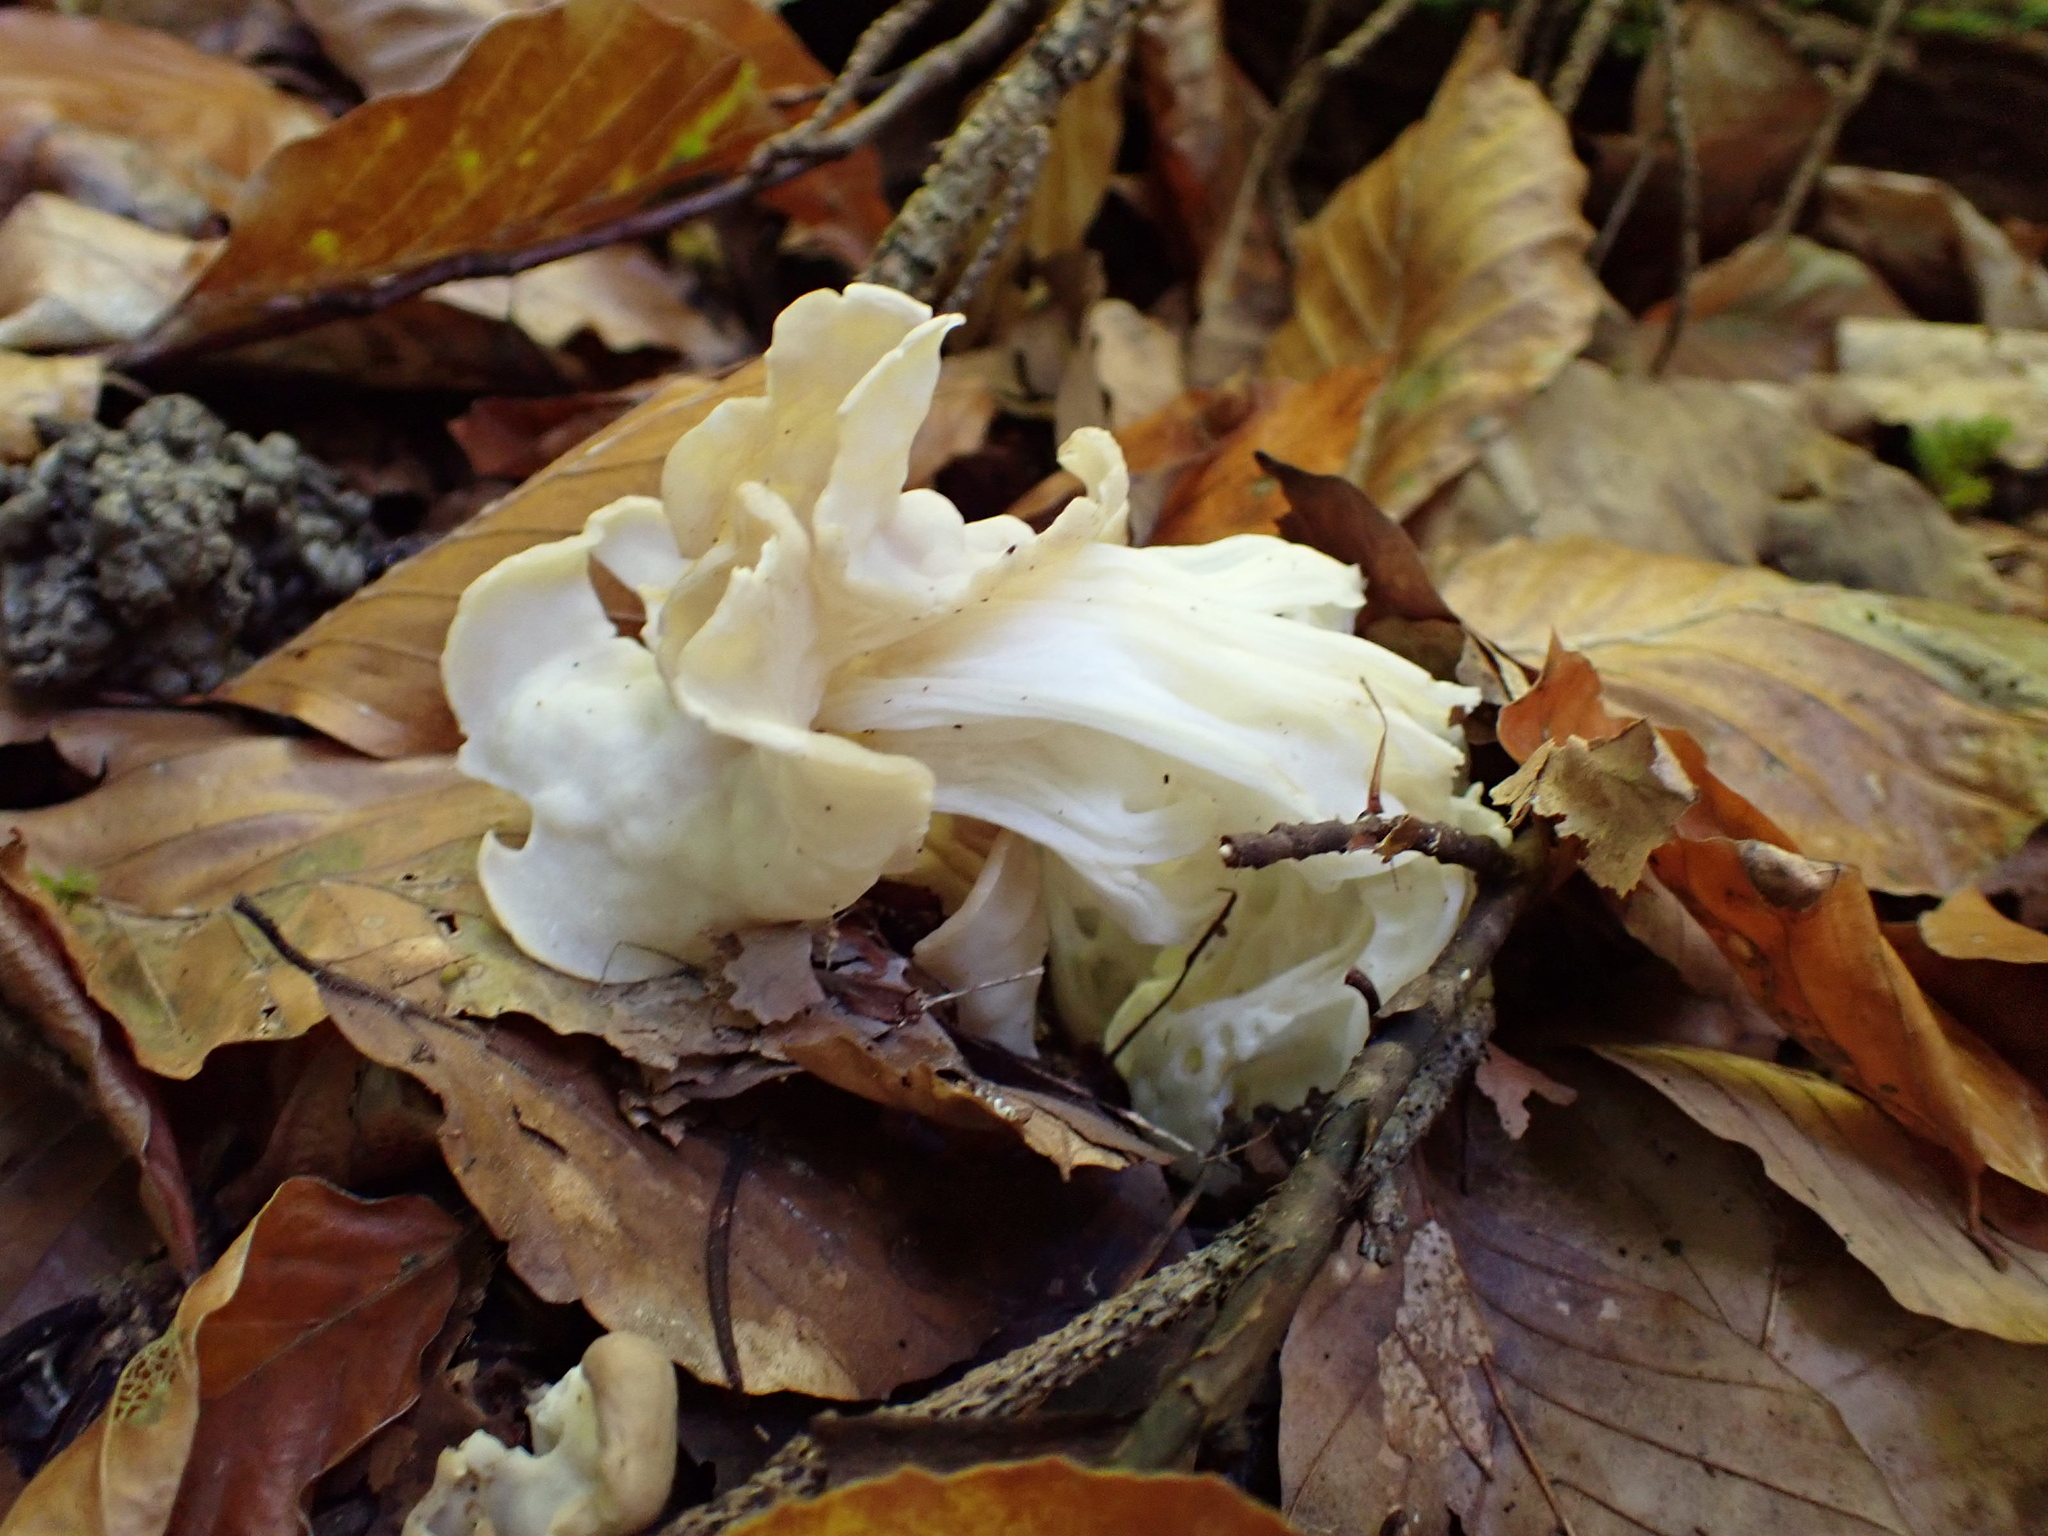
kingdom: Fungi
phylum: Ascomycota
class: Pezizomycetes
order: Pezizales
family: Helvellaceae
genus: Helvella
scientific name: Helvella crispa
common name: White saddle
